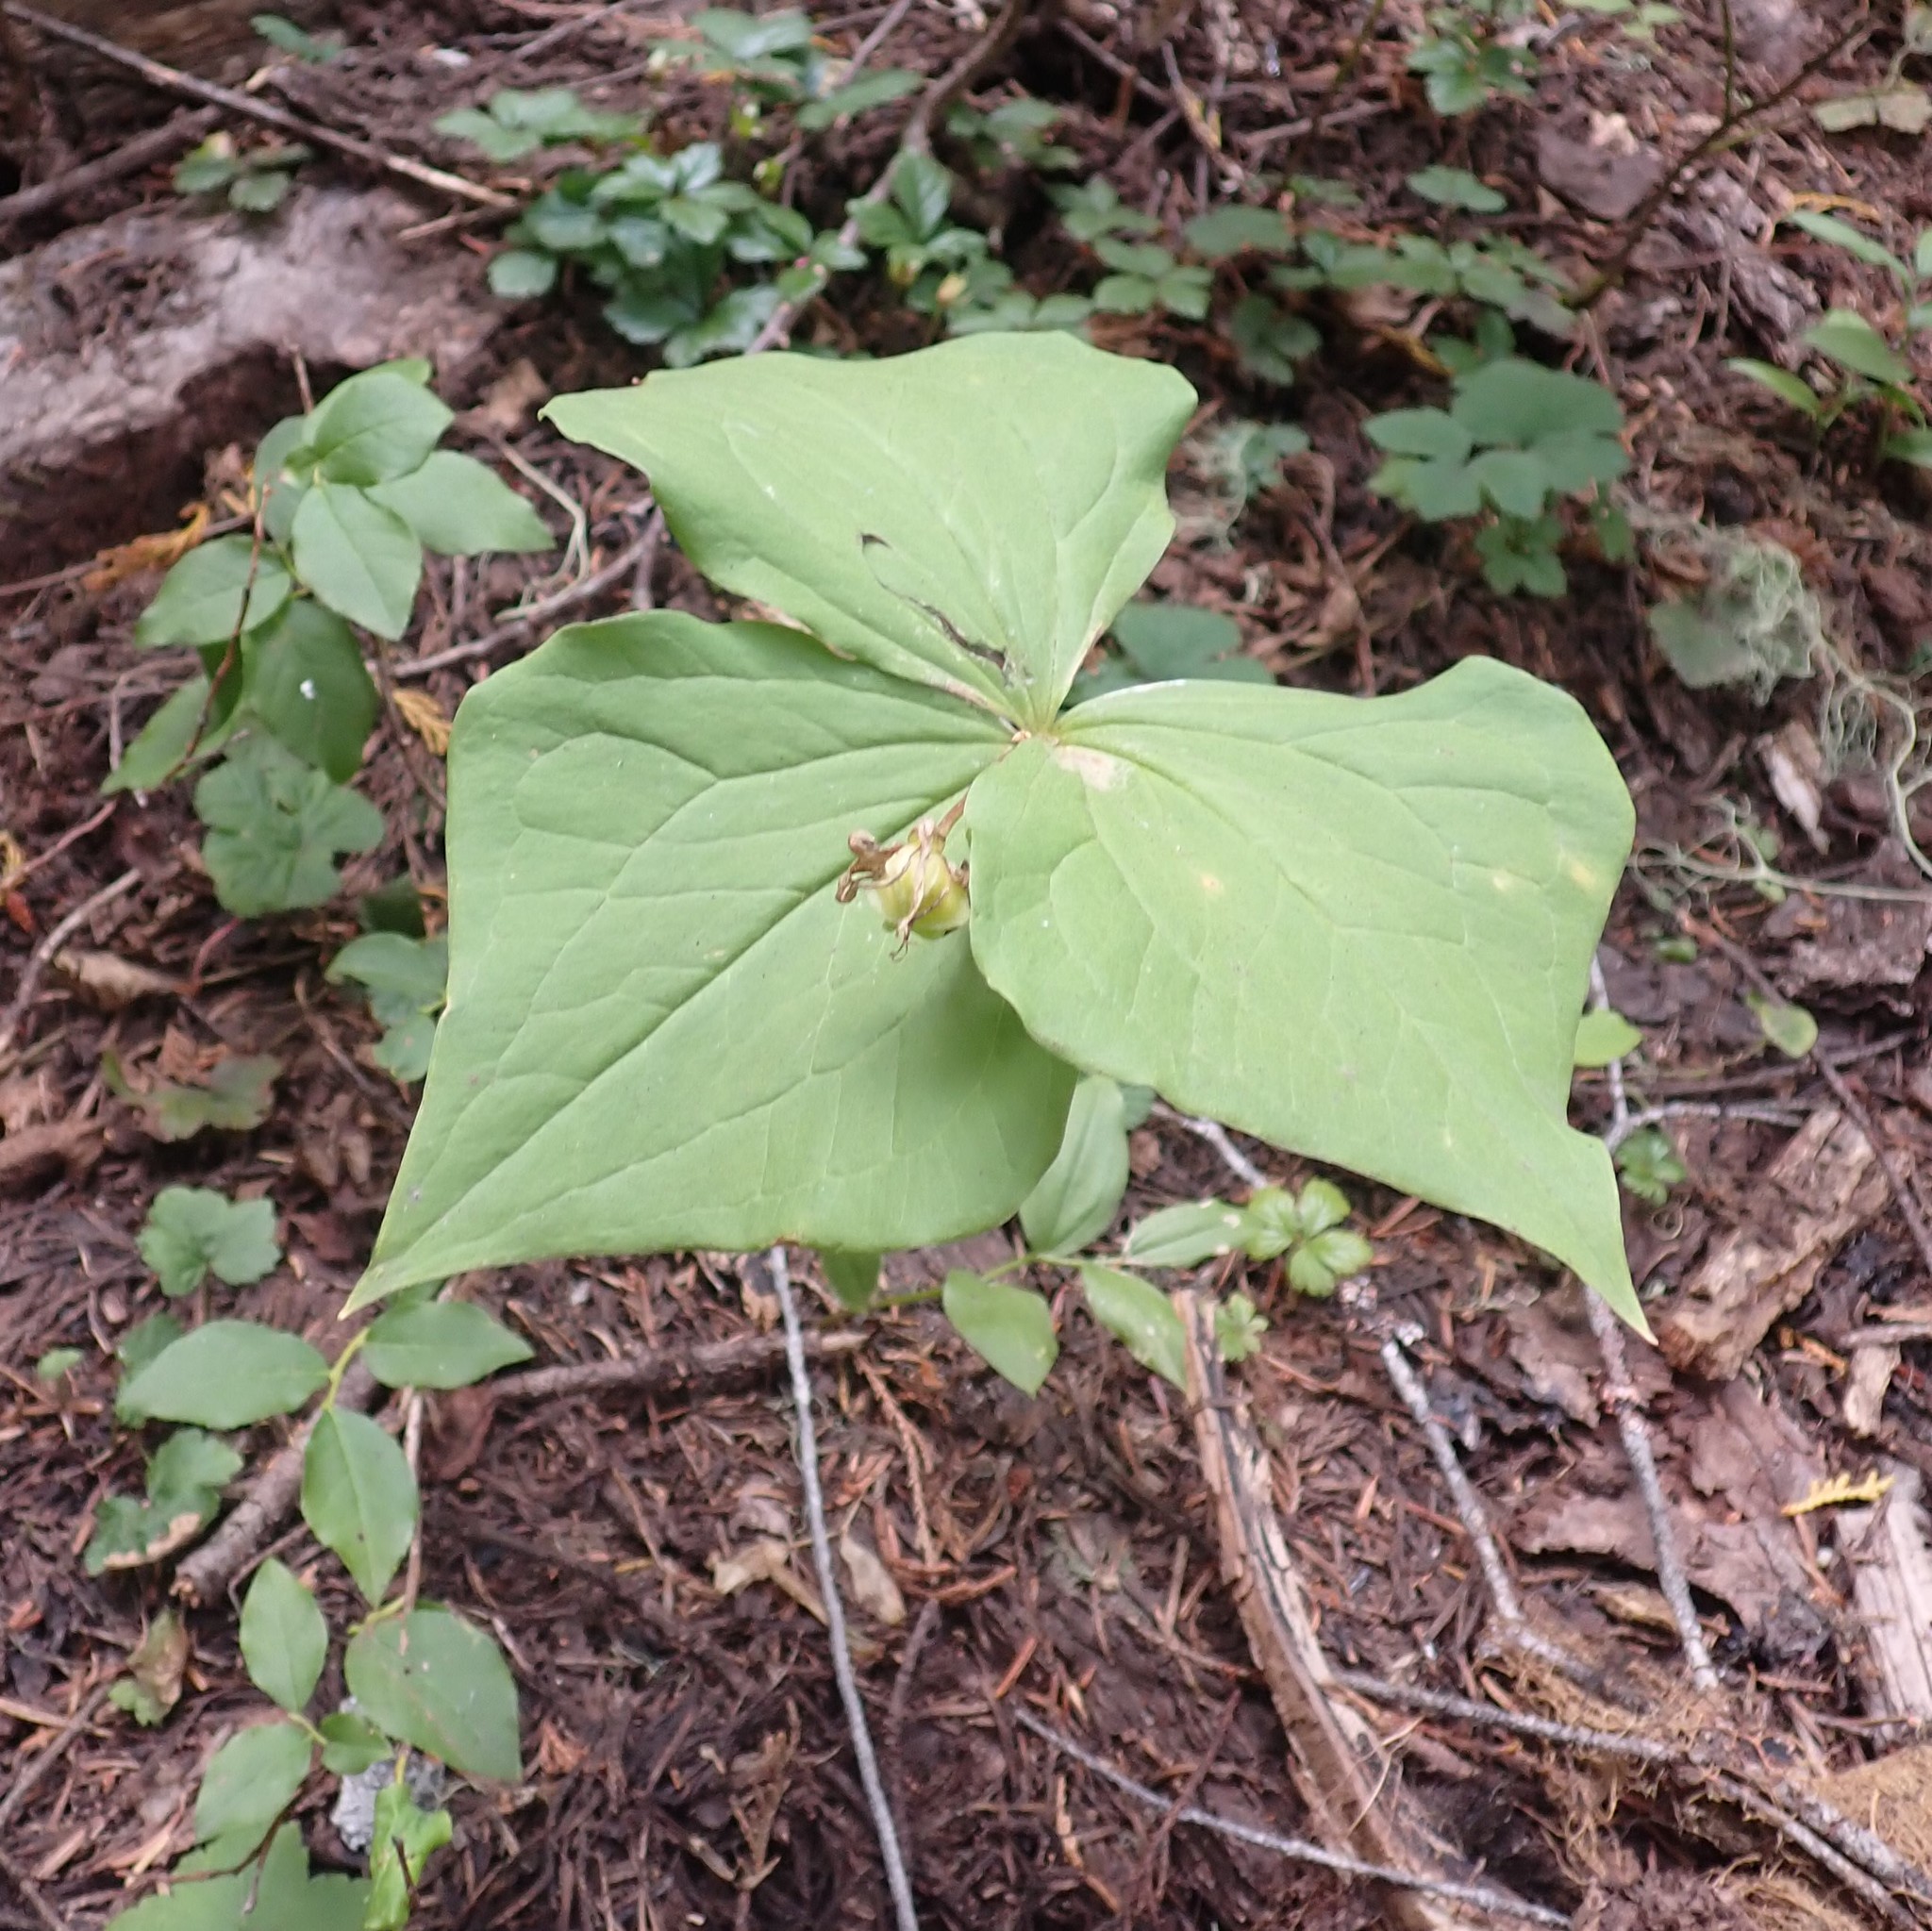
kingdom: Plantae
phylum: Tracheophyta
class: Liliopsida
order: Liliales
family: Melanthiaceae
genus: Trillium
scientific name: Trillium ovatum
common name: Pacific trillium
